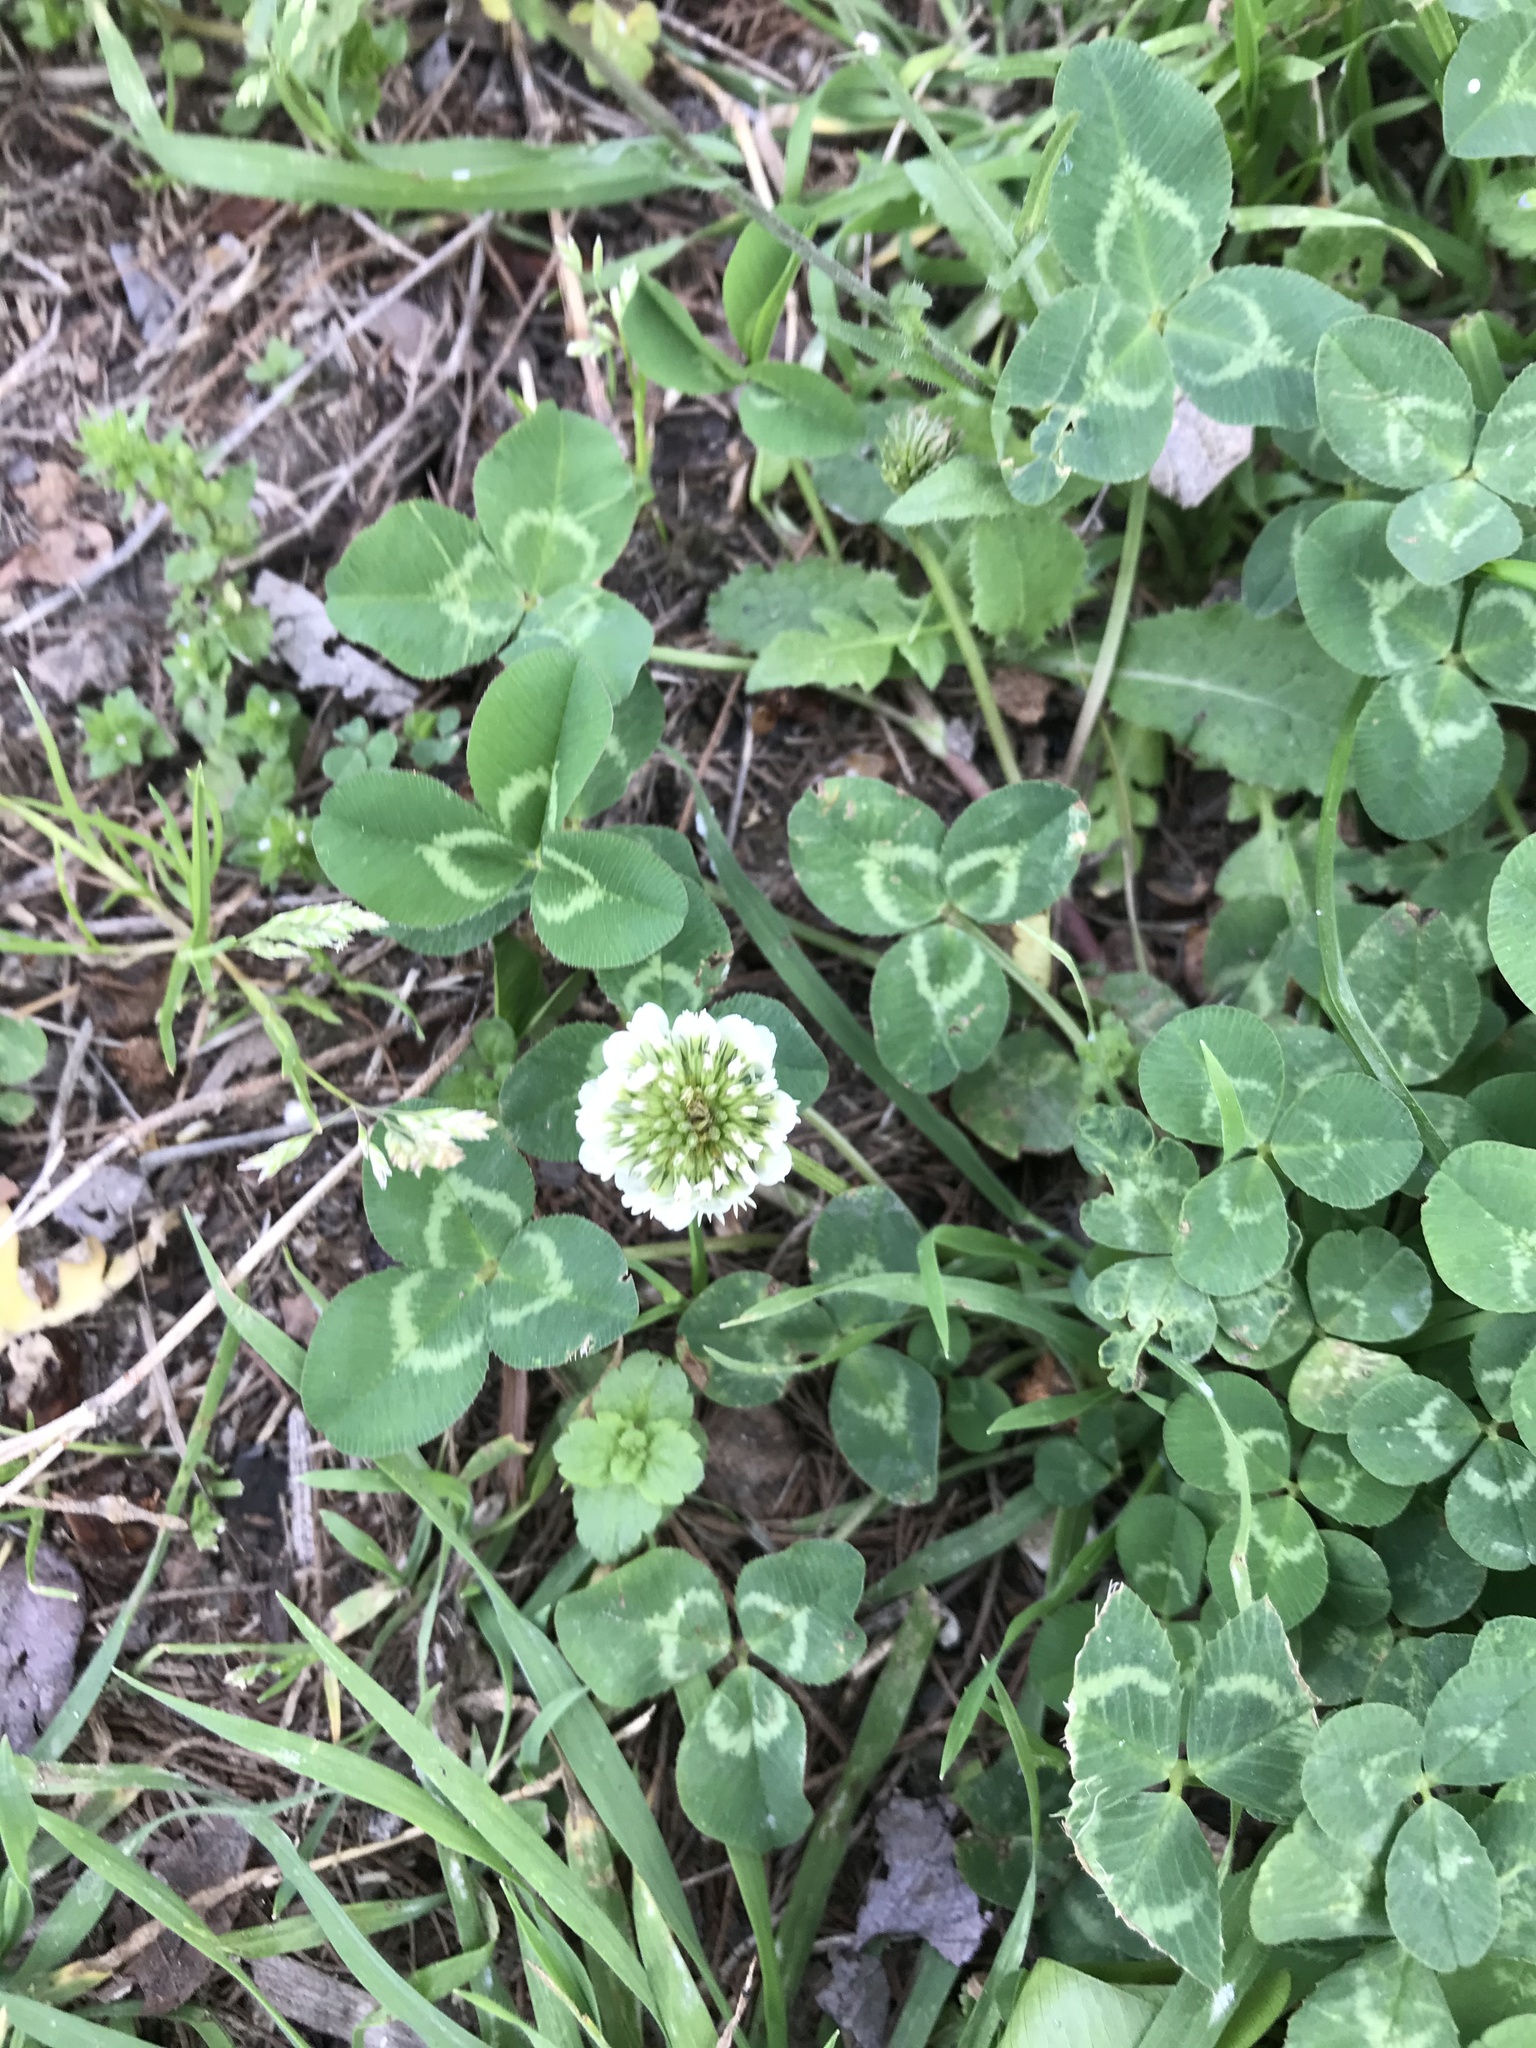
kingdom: Plantae
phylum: Tracheophyta
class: Magnoliopsida
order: Fabales
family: Fabaceae
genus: Trifolium
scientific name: Trifolium repens
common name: White clover
